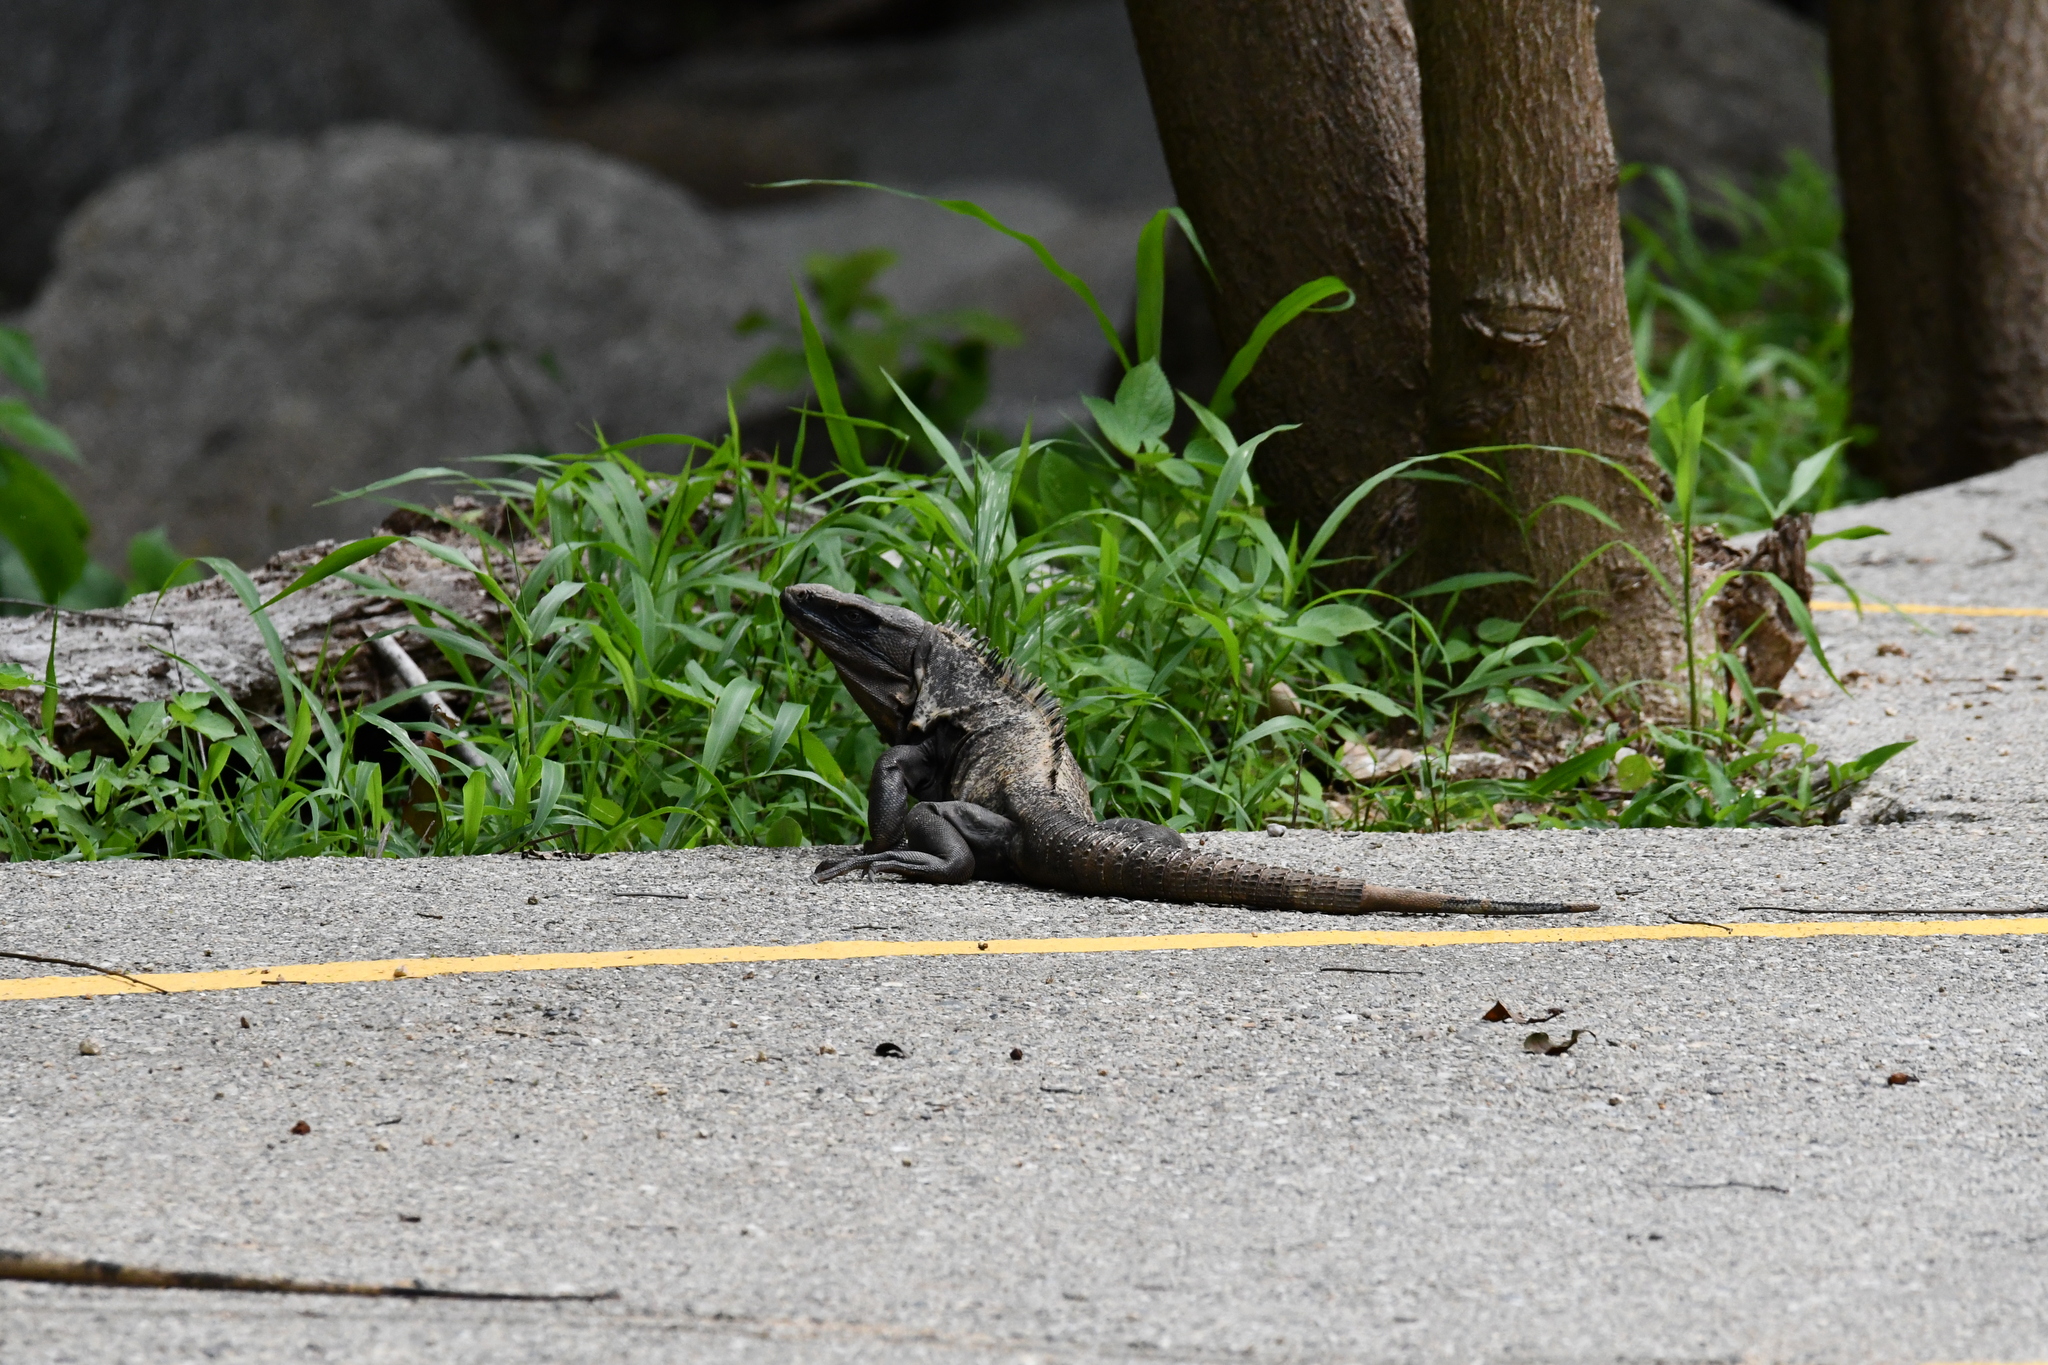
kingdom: Animalia
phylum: Chordata
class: Squamata
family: Iguanidae
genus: Ctenosaura
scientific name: Ctenosaura pectinata
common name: Guerreran spiny-tailed iguana
